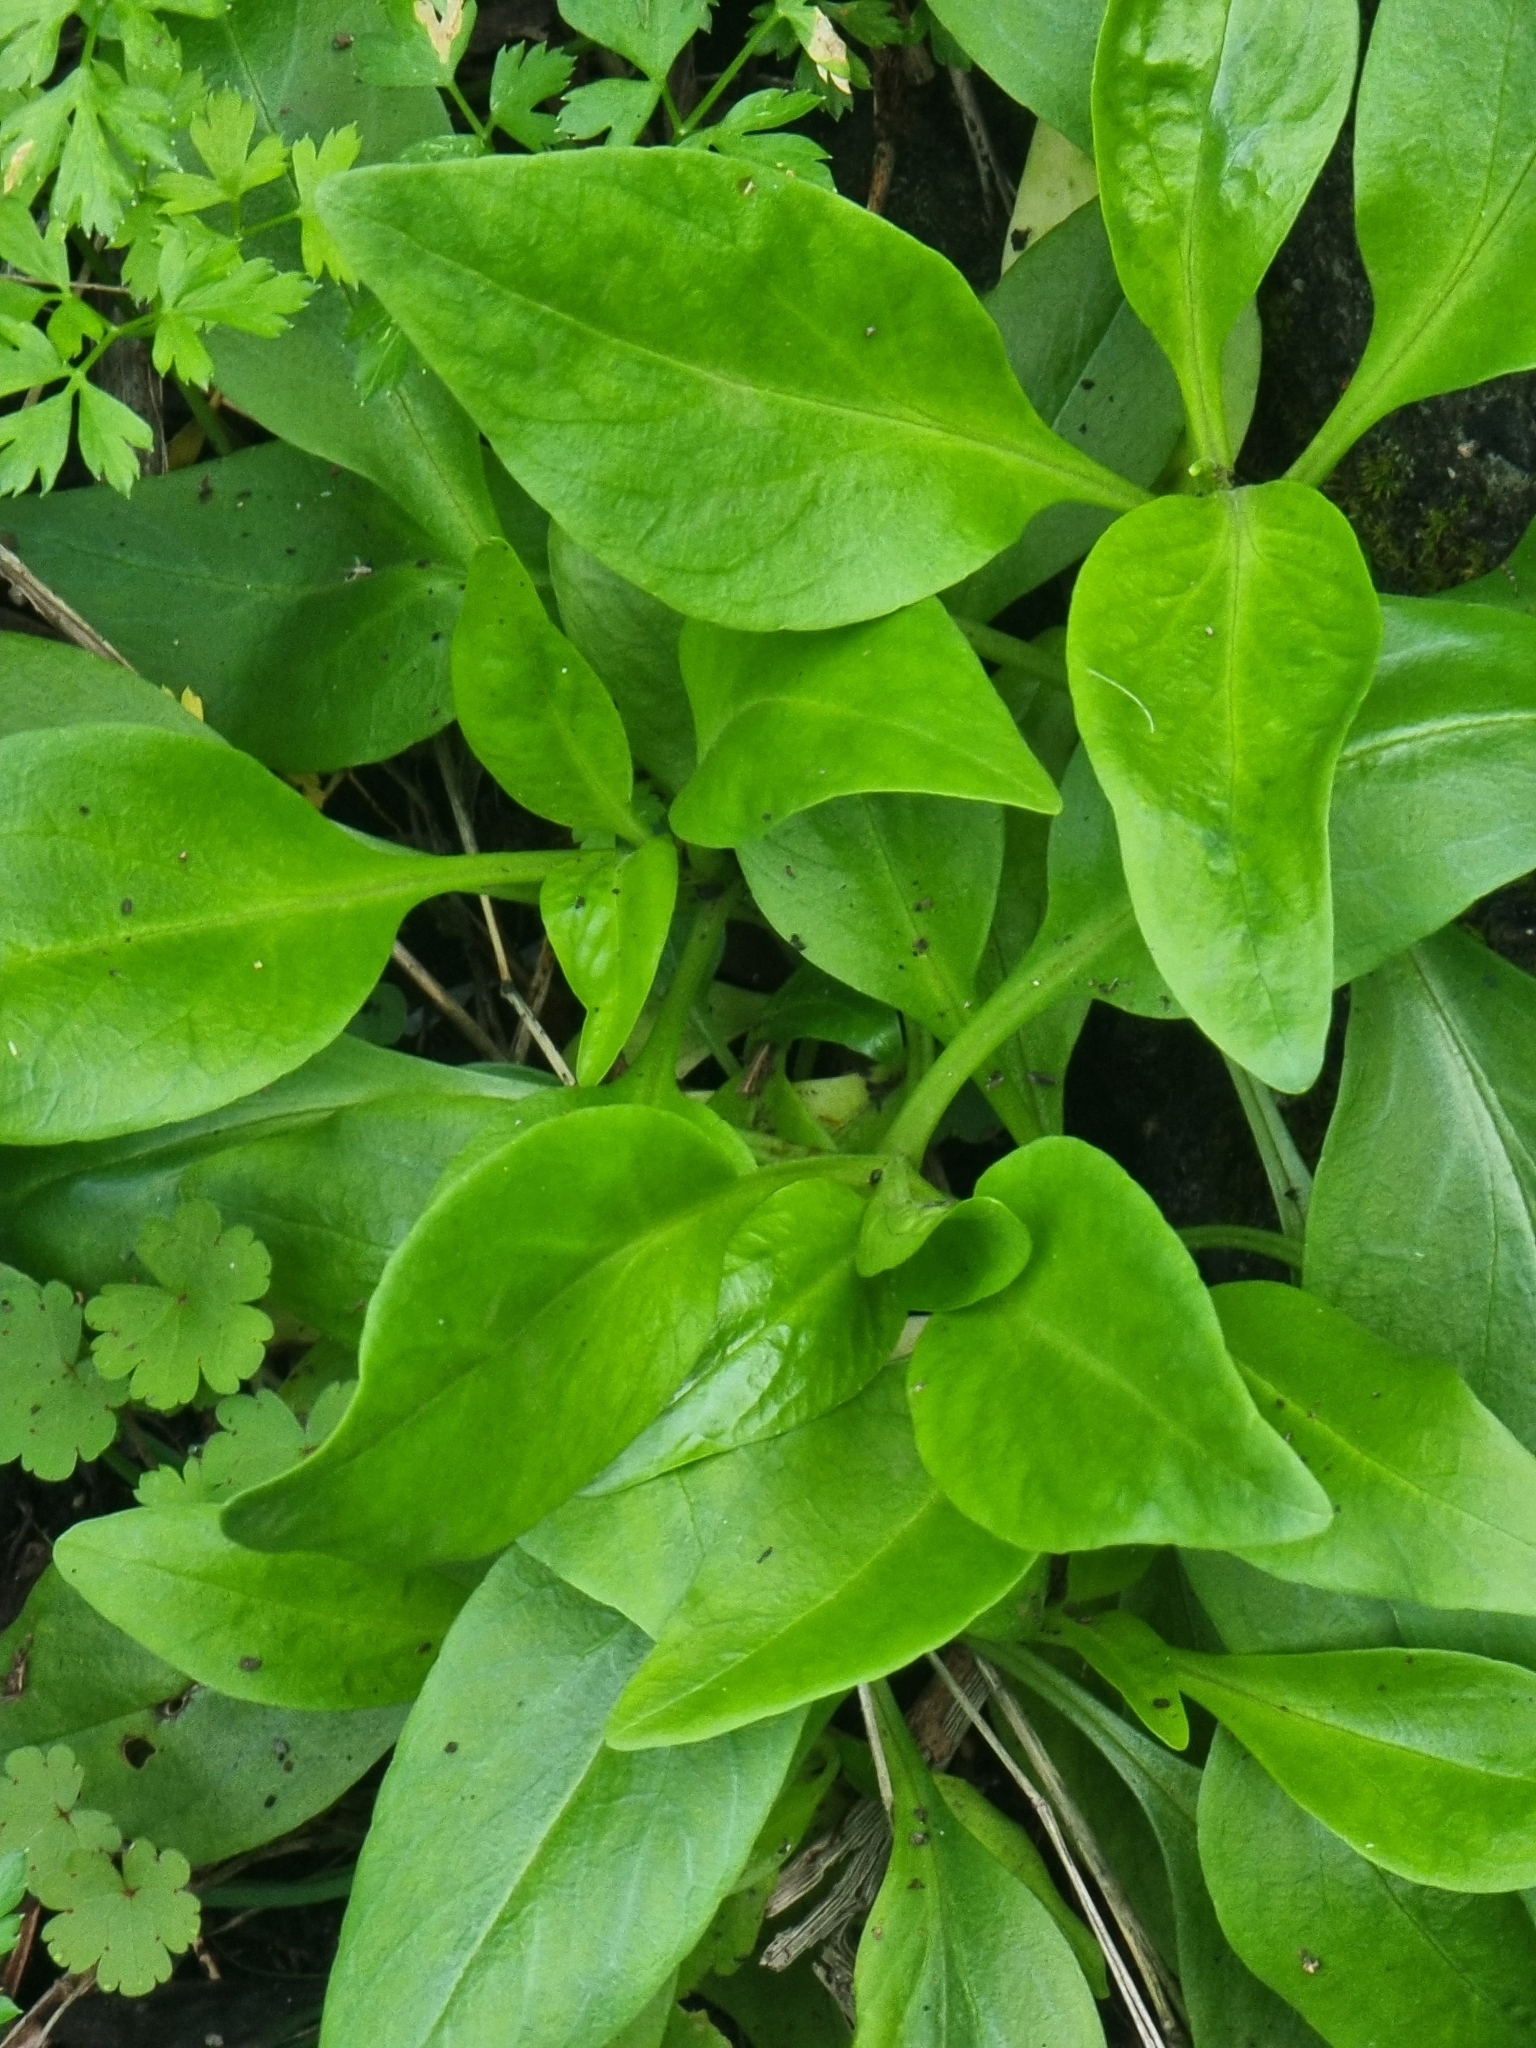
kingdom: Plantae
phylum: Tracheophyta
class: Magnoliopsida
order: Dipsacales
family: Caprifoliaceae
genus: Centranthus
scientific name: Centranthus ruber
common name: Red valerian
